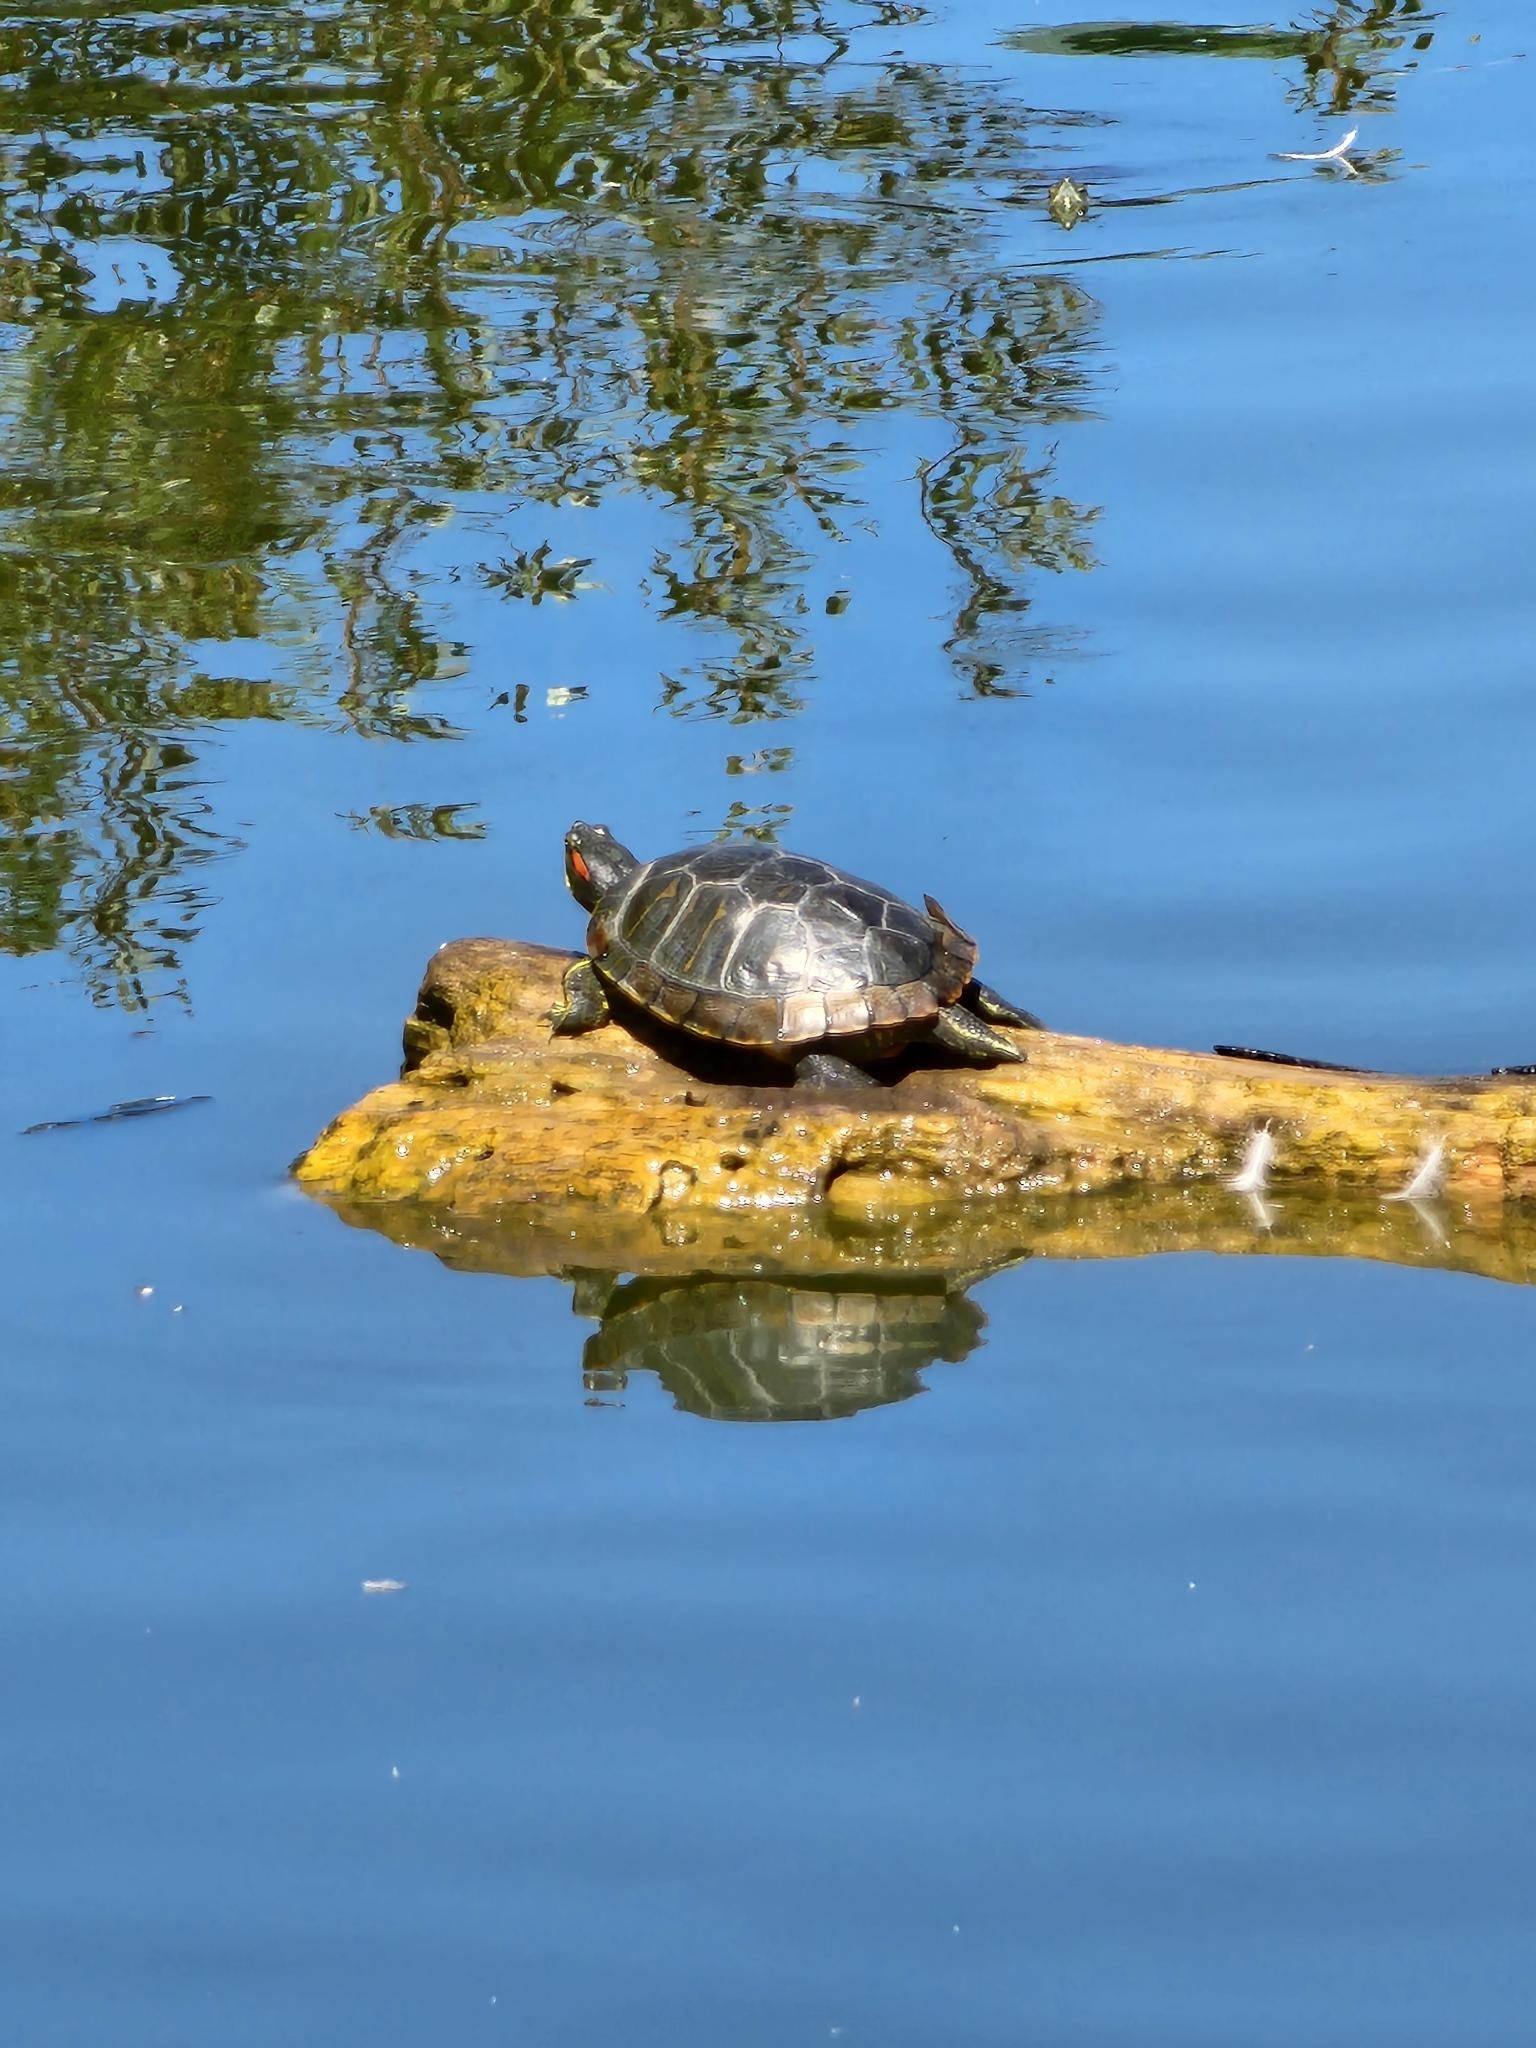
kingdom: Animalia
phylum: Chordata
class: Testudines
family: Emydidae
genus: Trachemys
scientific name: Trachemys scripta
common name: Slider
